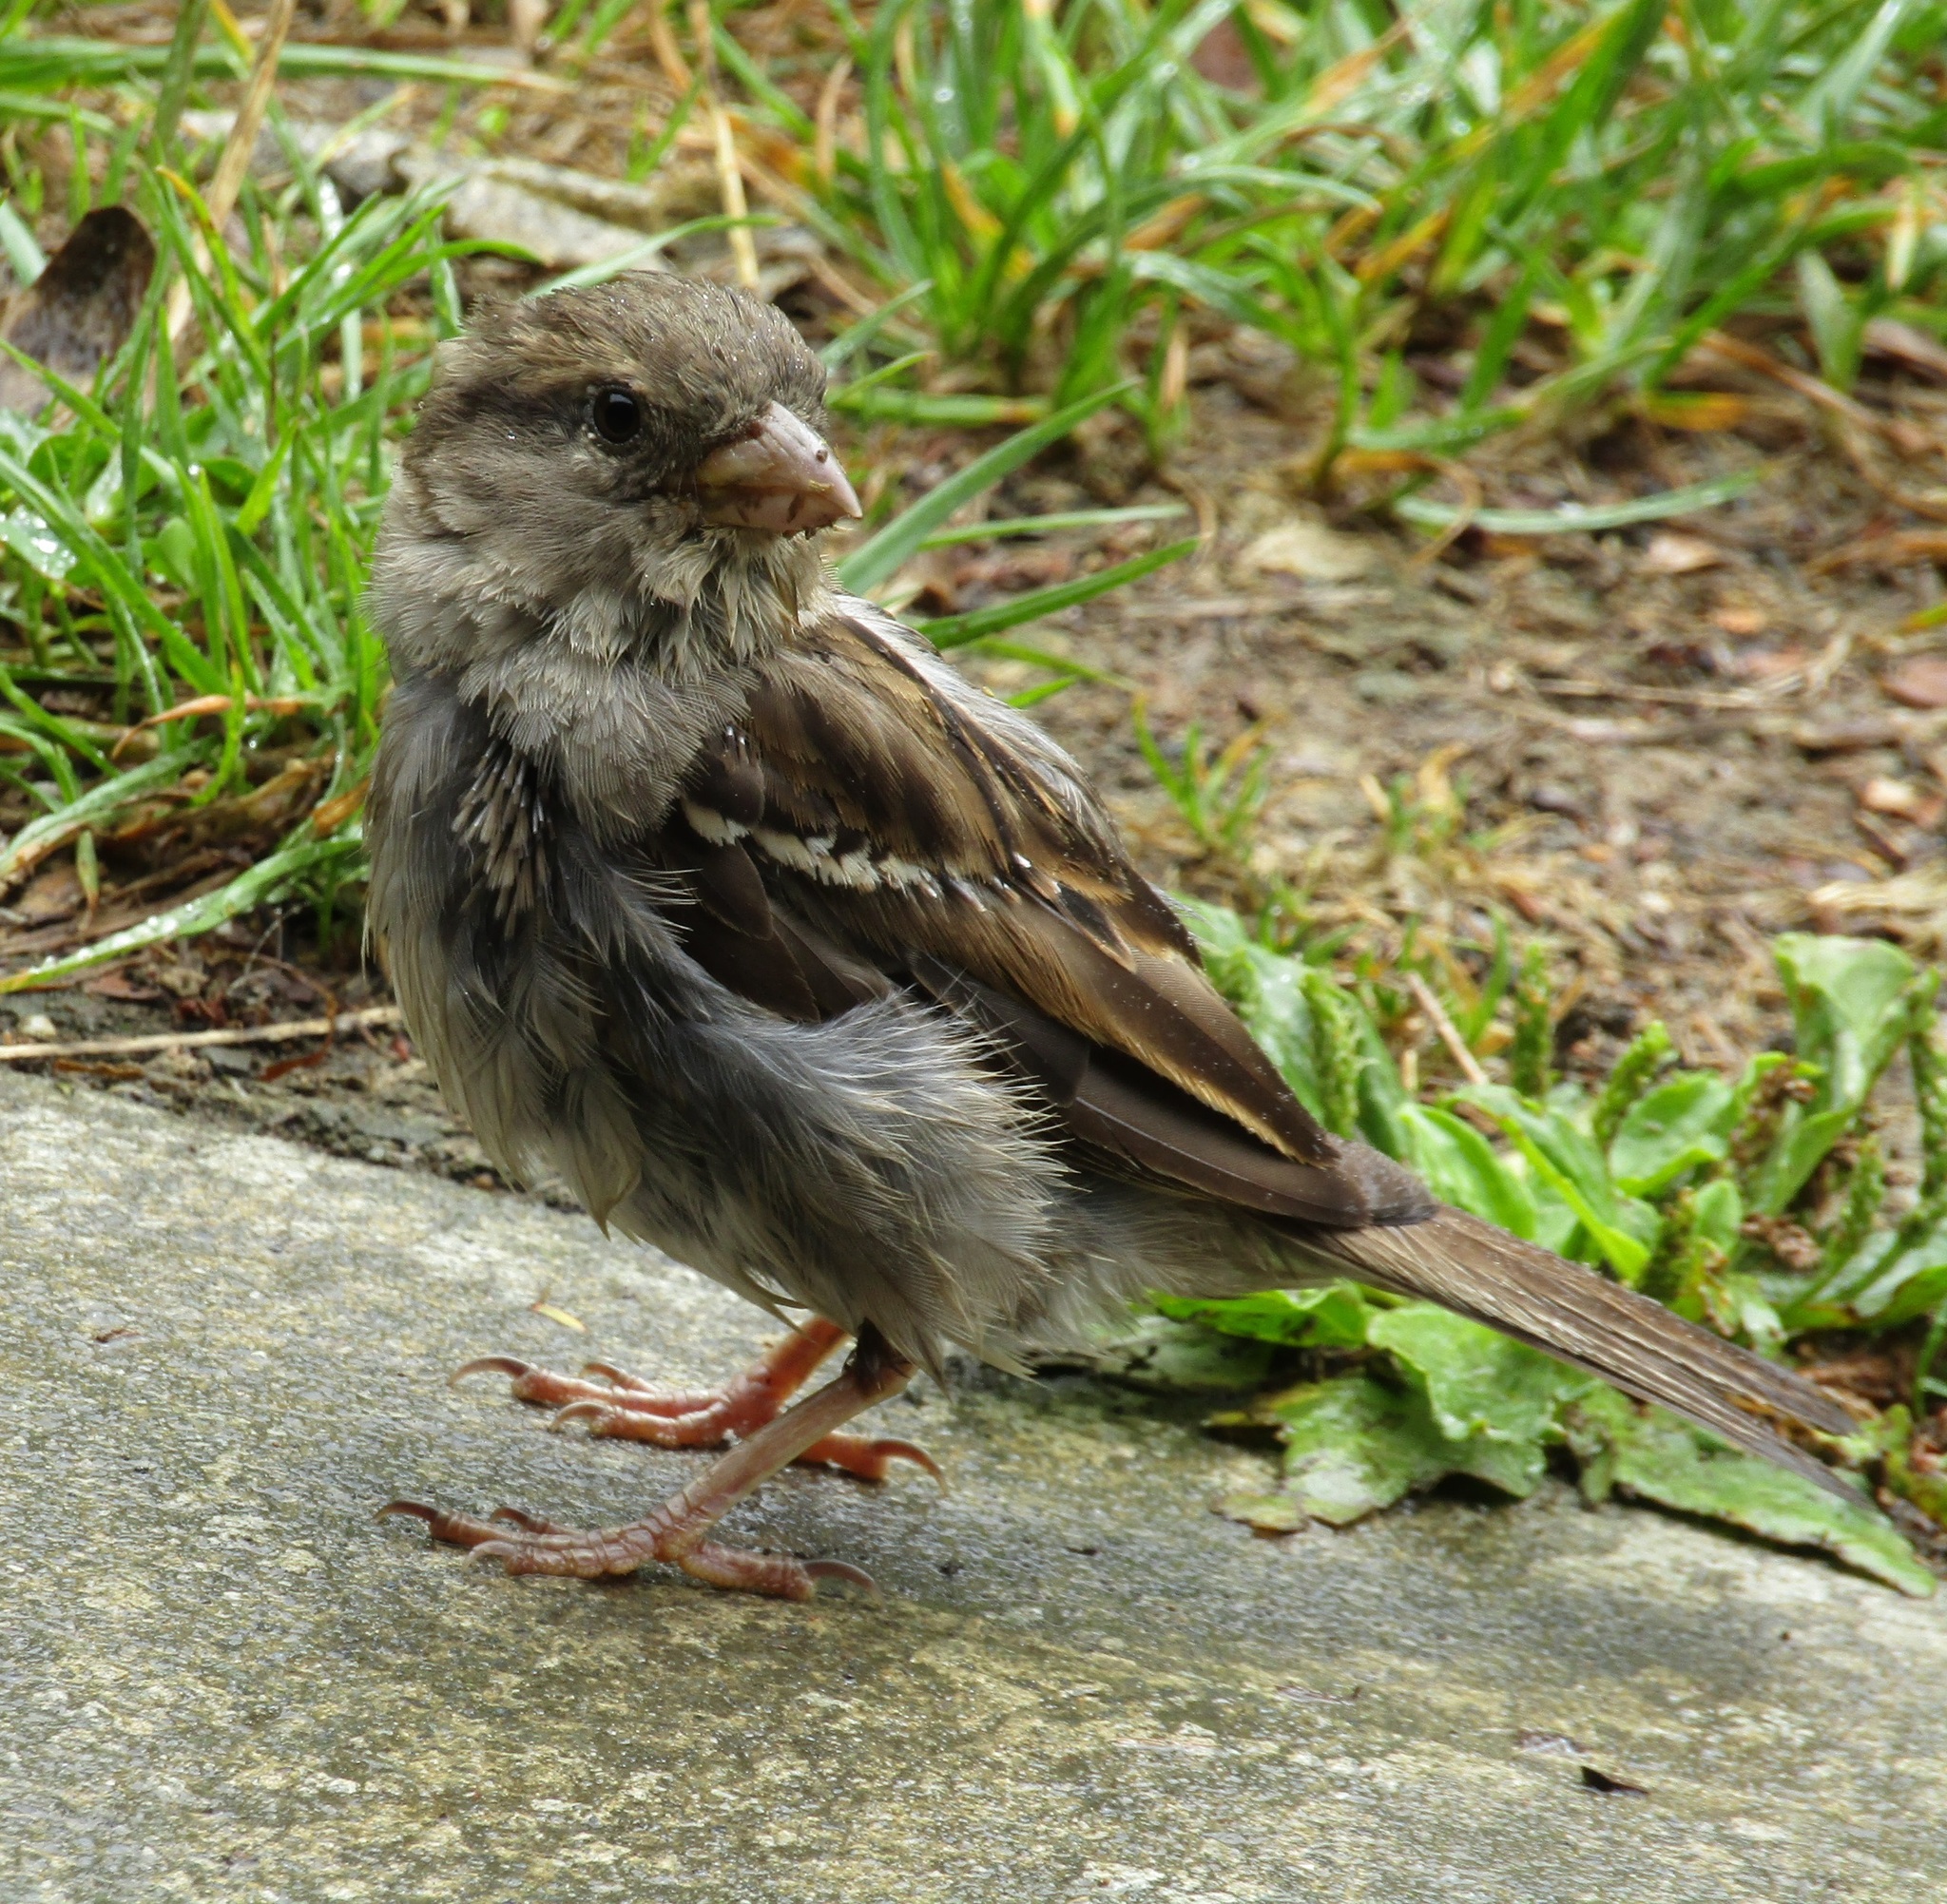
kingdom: Animalia
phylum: Chordata
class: Aves
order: Passeriformes
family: Passeridae
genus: Passer
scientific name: Passer domesticus
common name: House sparrow
